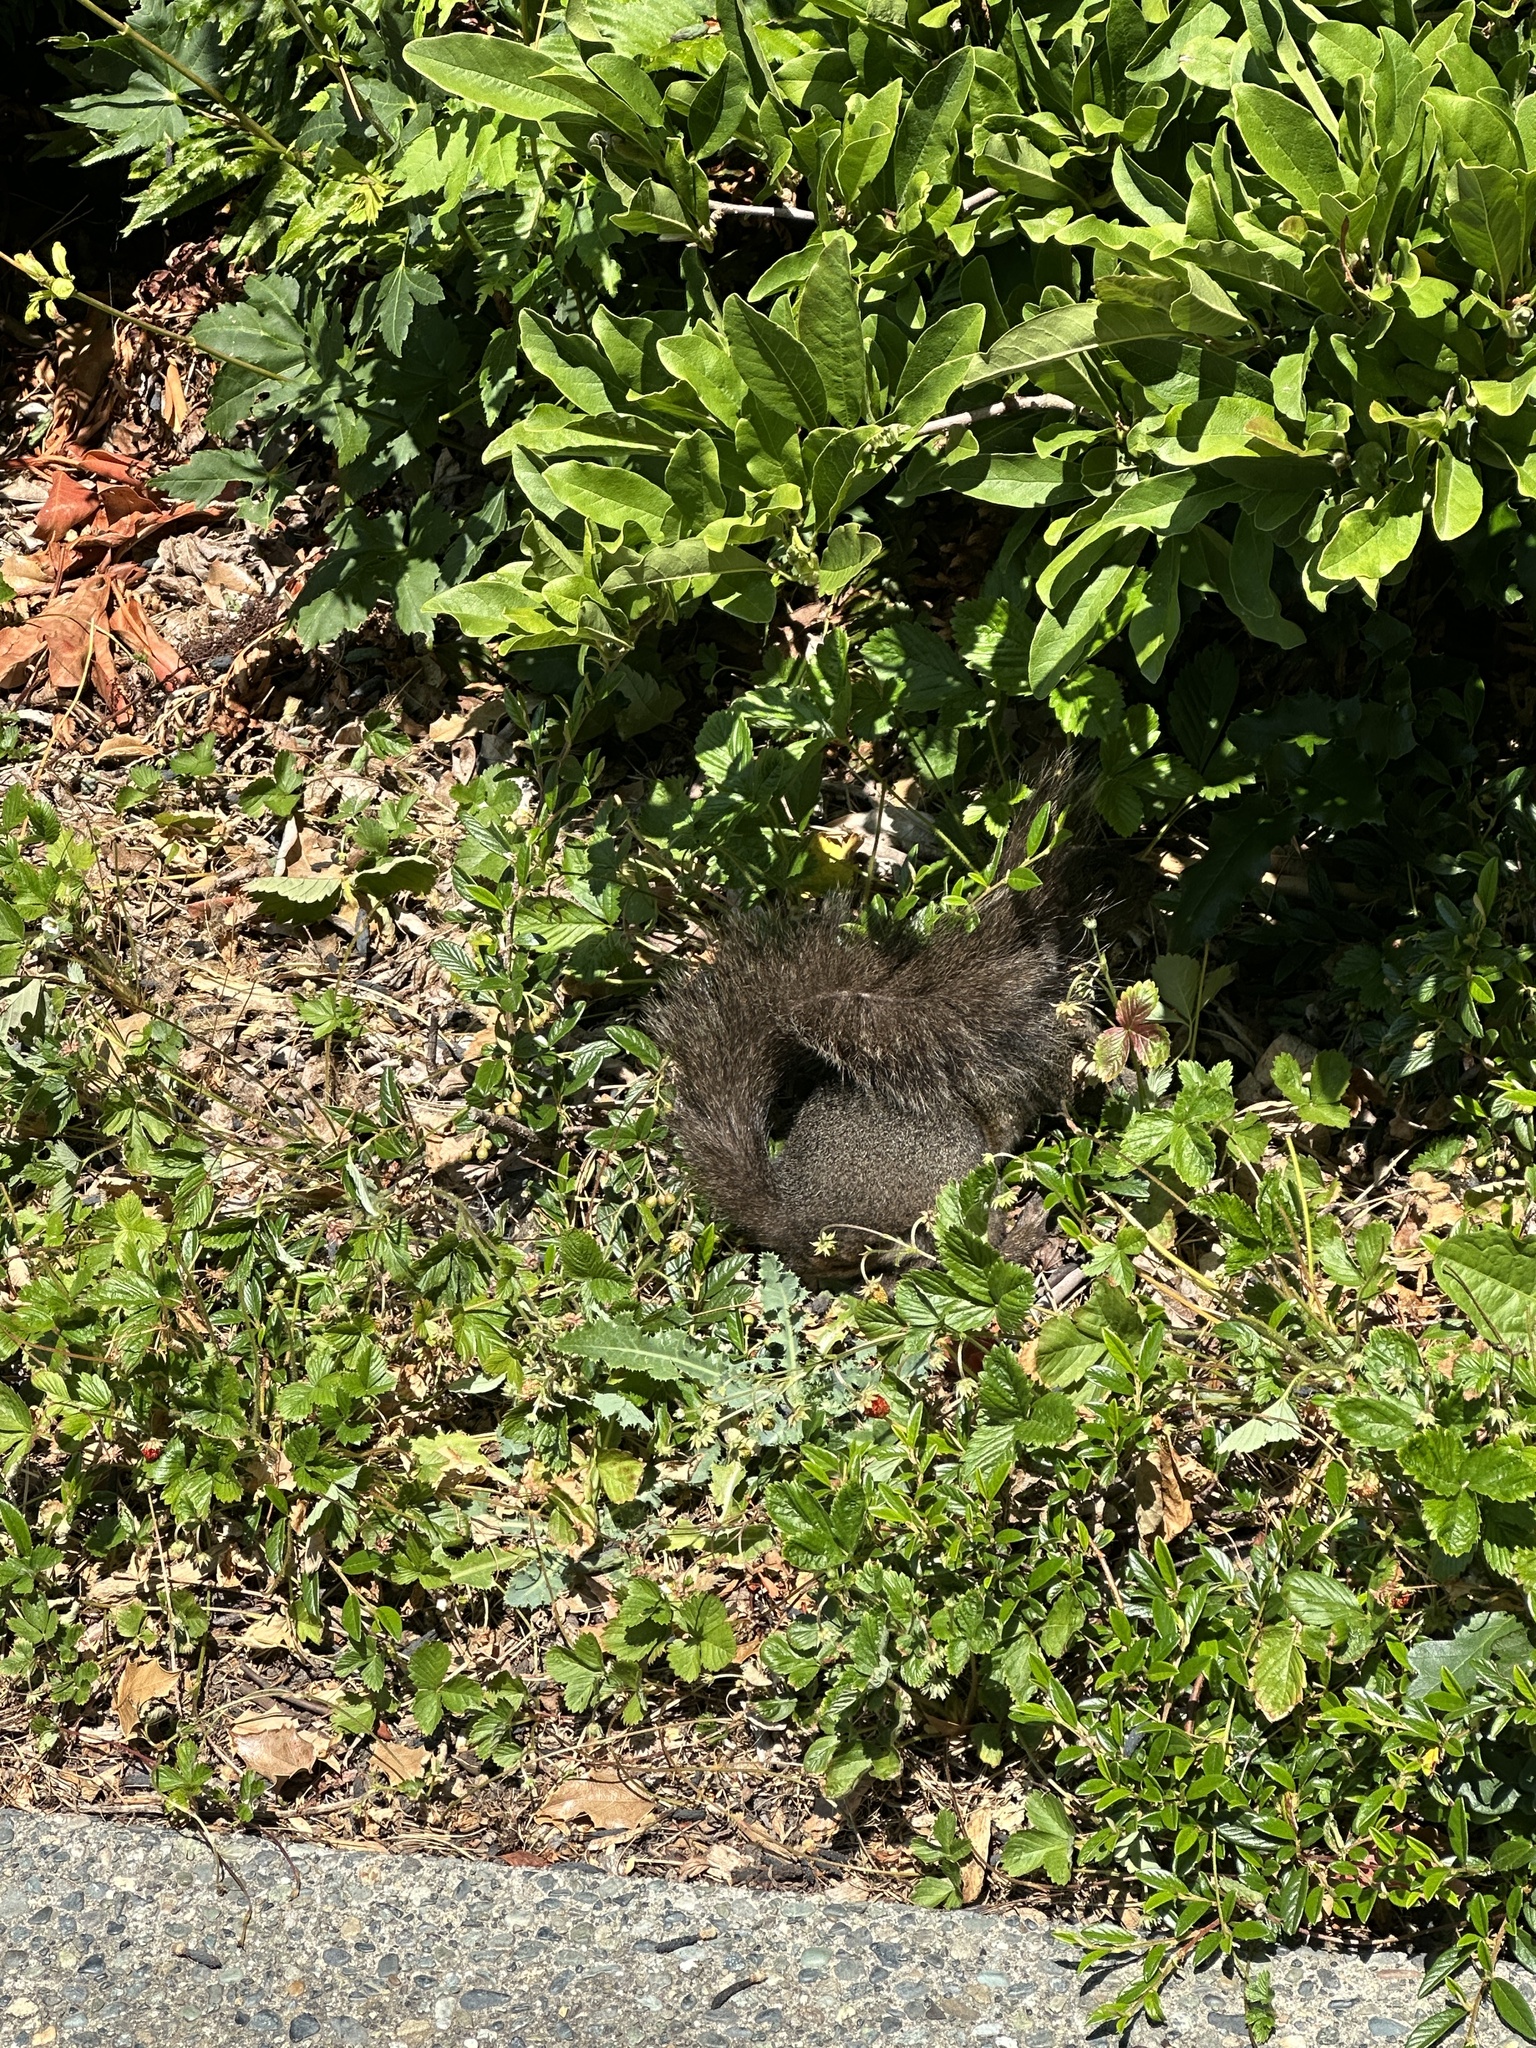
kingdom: Animalia
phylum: Chordata
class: Mammalia
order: Rodentia
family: Sciuridae
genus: Sciurus
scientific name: Sciurus carolinensis
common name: Eastern gray squirrel
